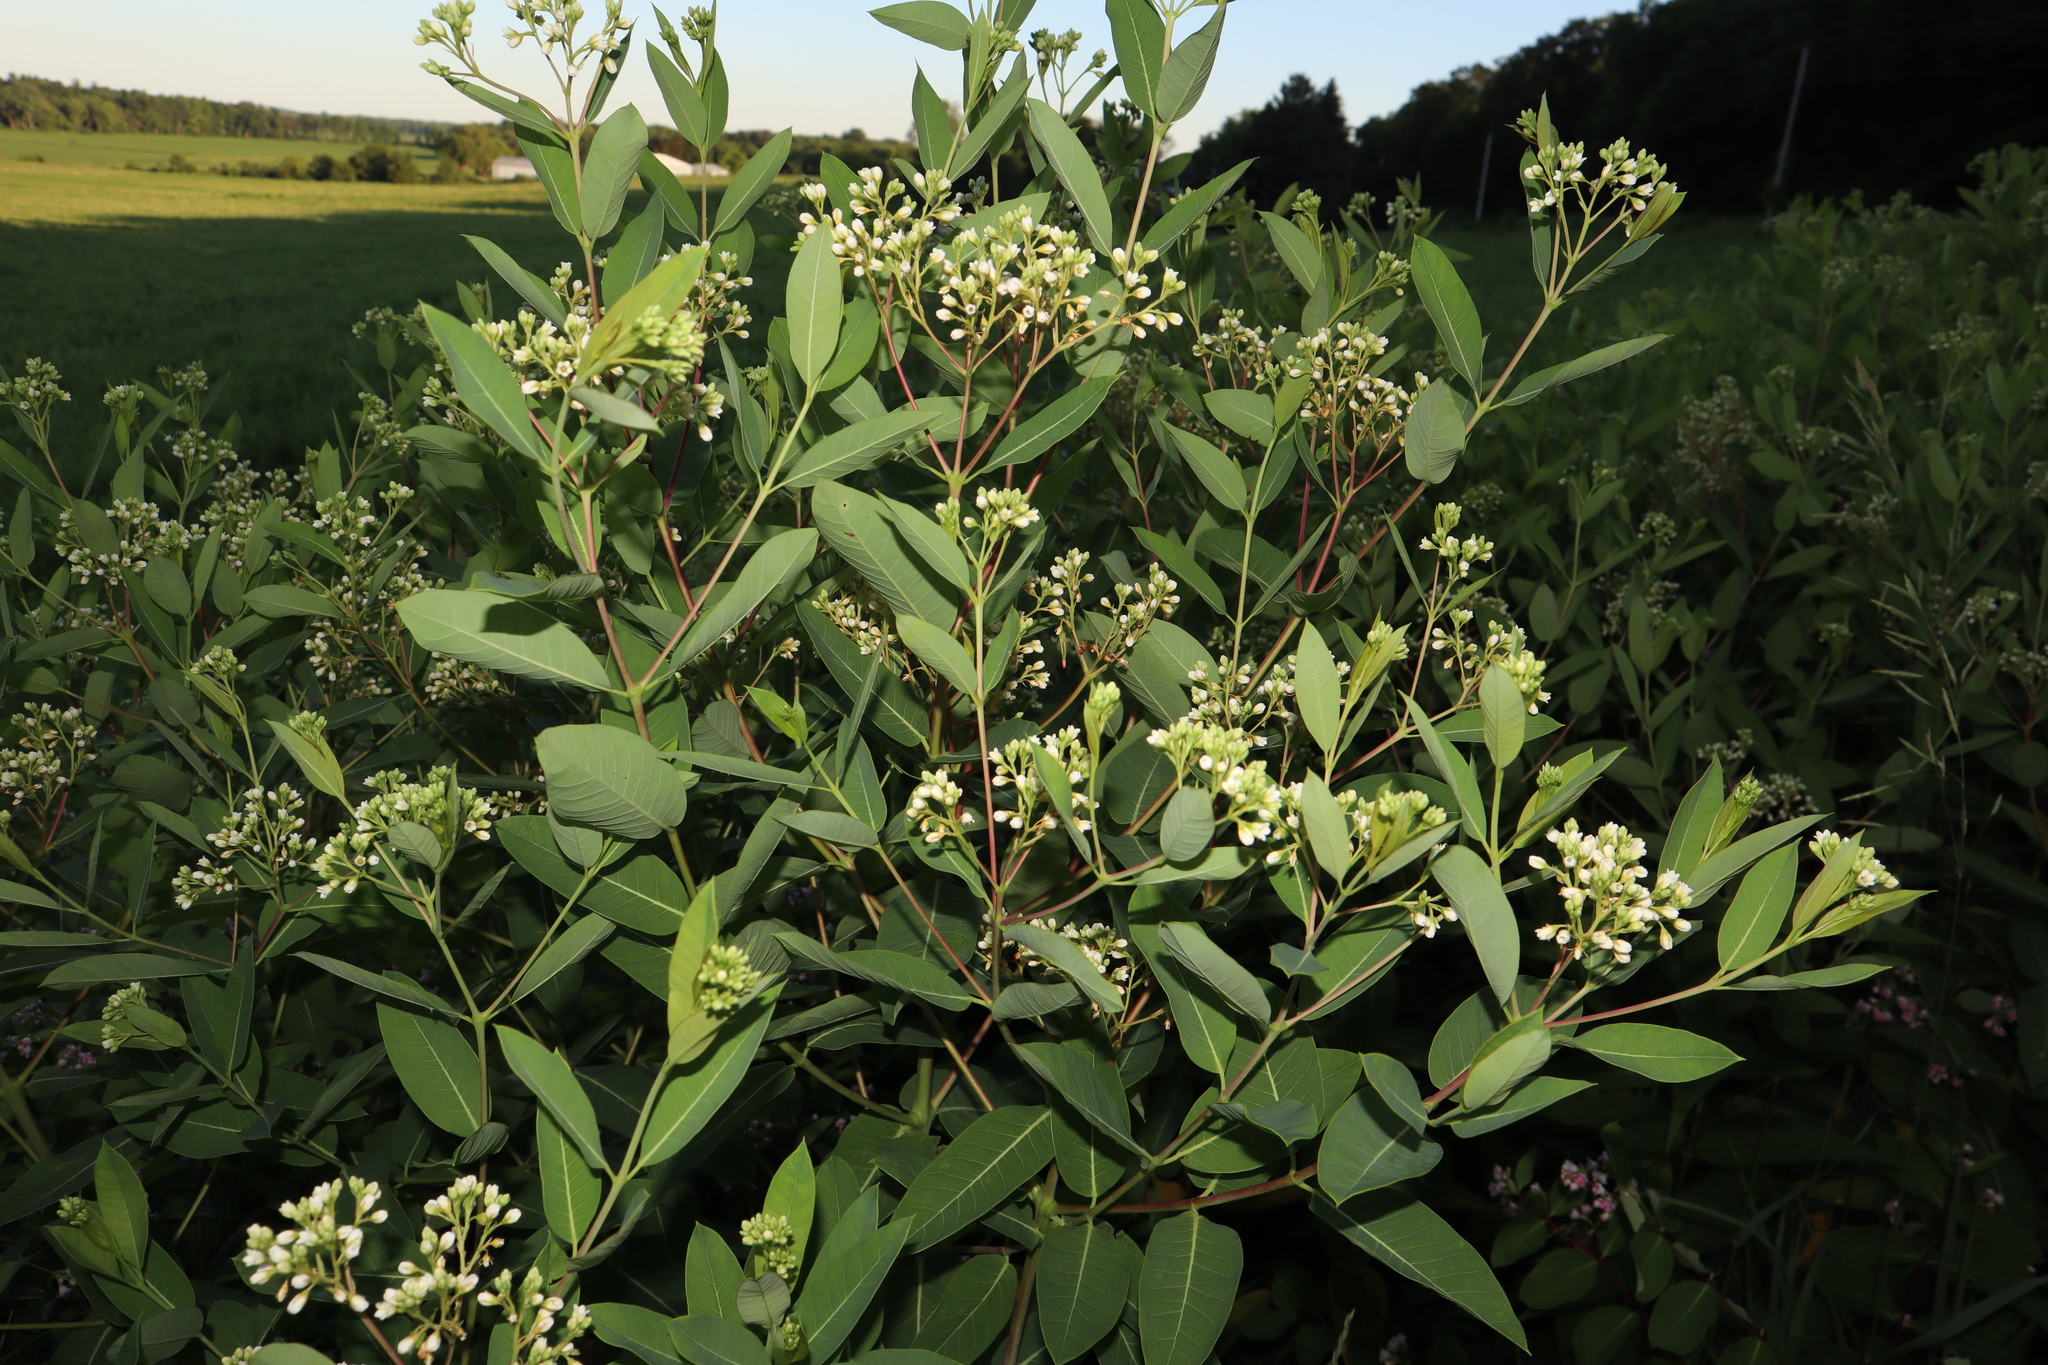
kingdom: Plantae
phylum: Tracheophyta
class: Magnoliopsida
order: Gentianales
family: Apocynaceae
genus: Apocynum
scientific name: Apocynum cannabinum
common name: Hemp dogbane
